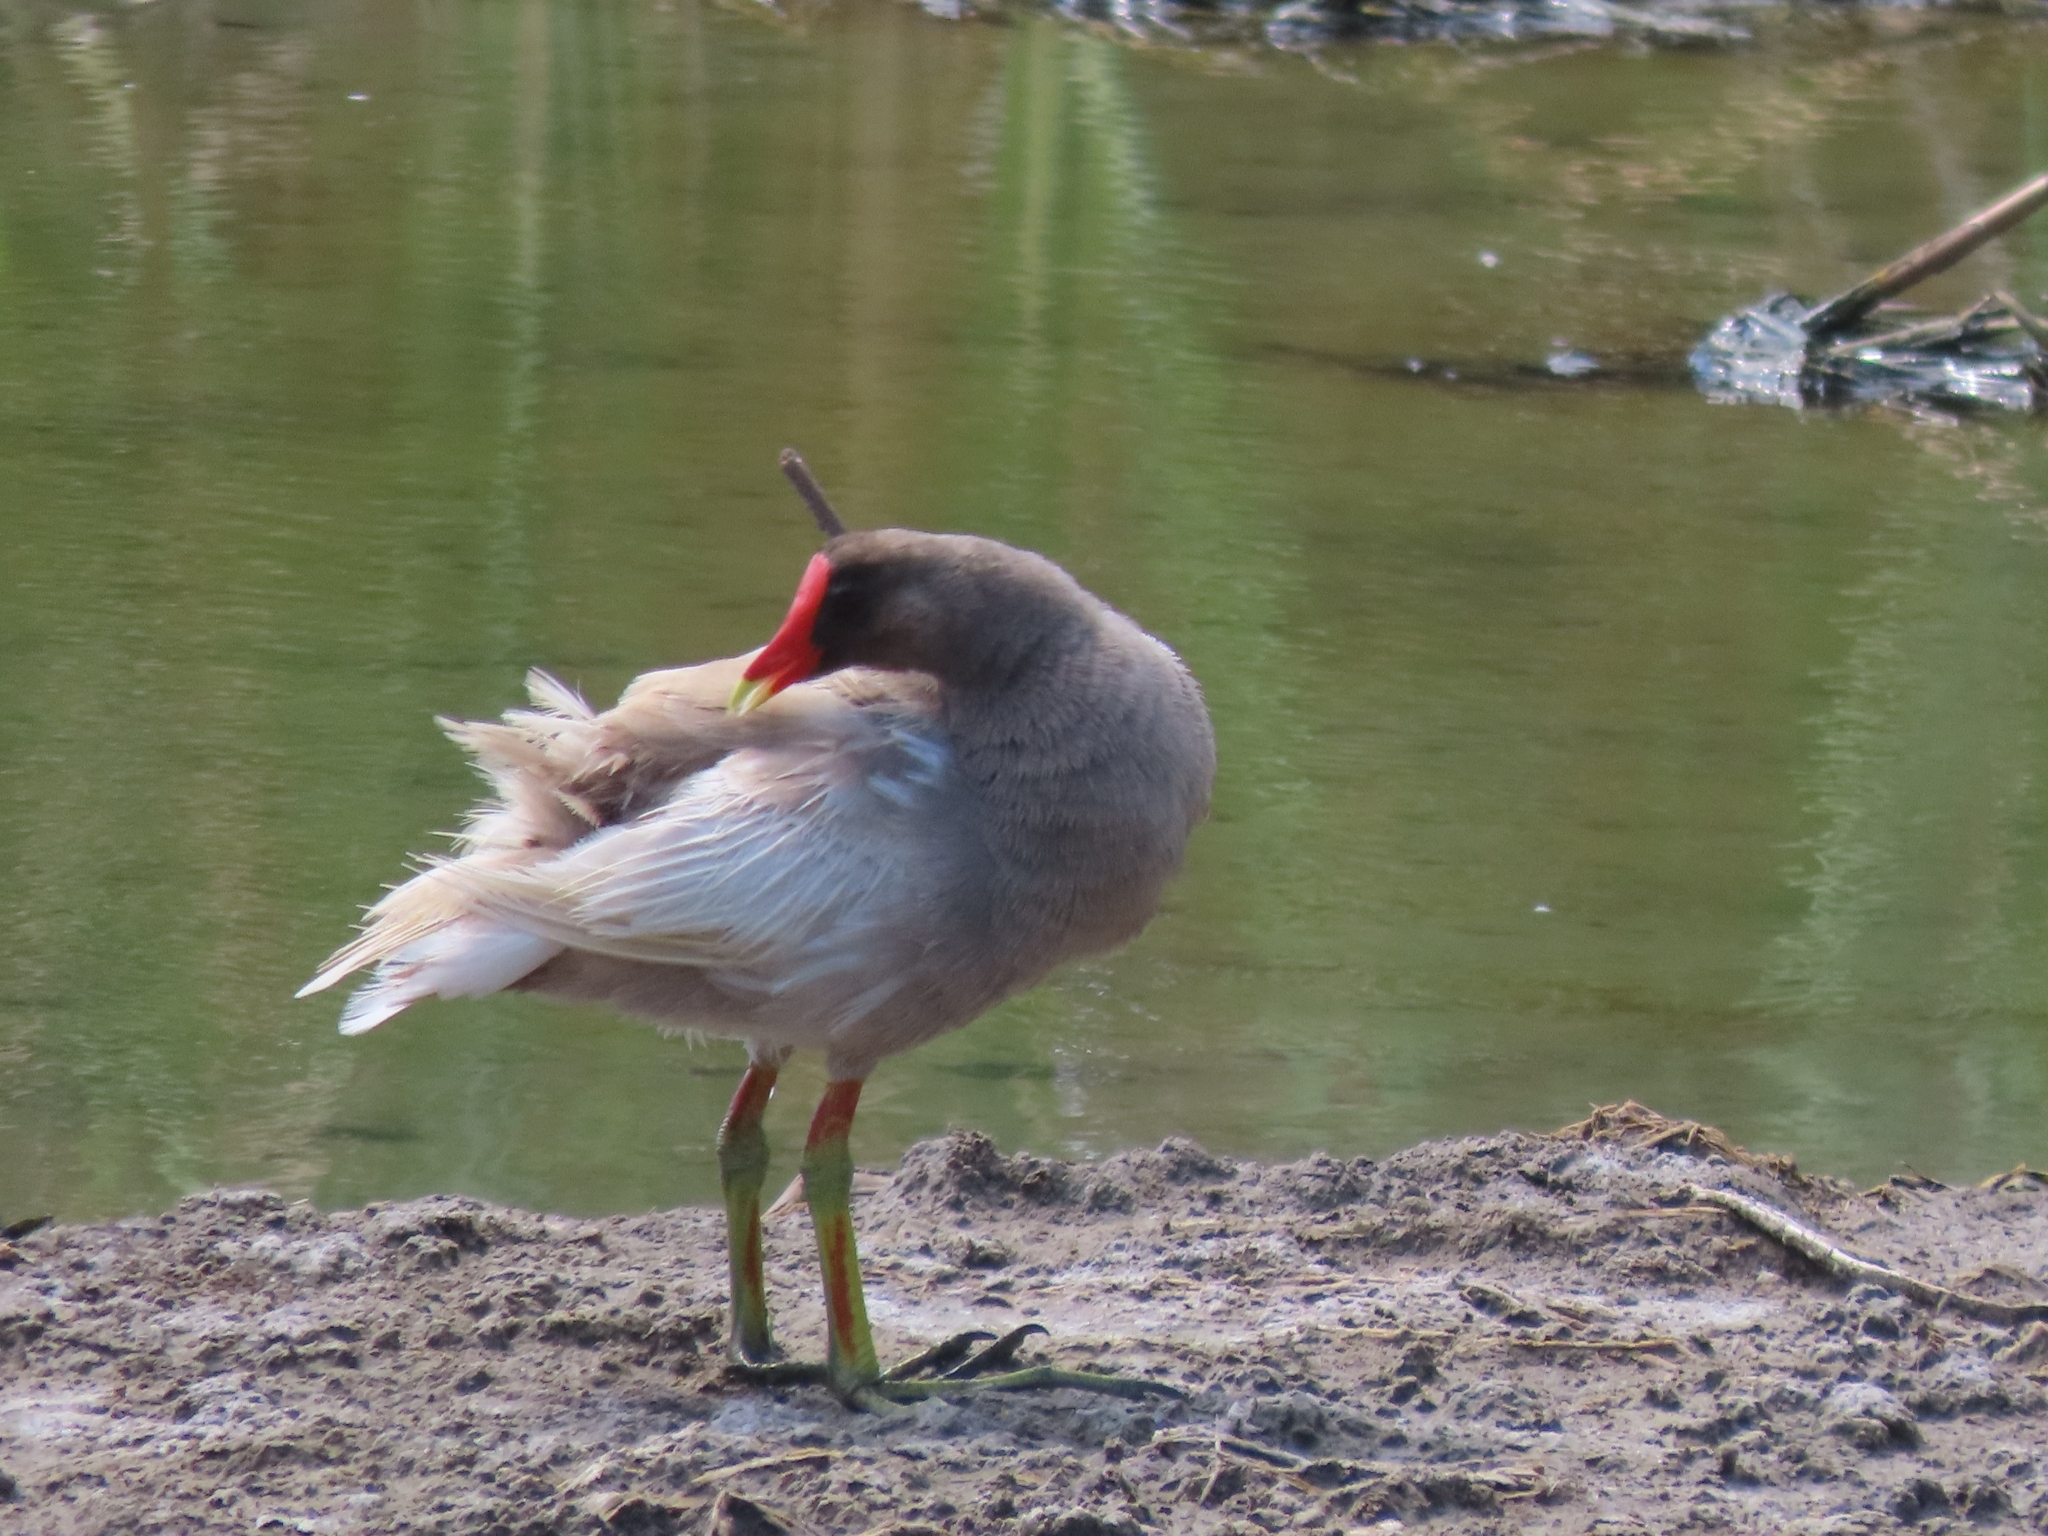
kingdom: Animalia
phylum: Chordata
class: Aves
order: Gruiformes
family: Rallidae
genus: Gallinula
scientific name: Gallinula chloropus
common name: Common moorhen
